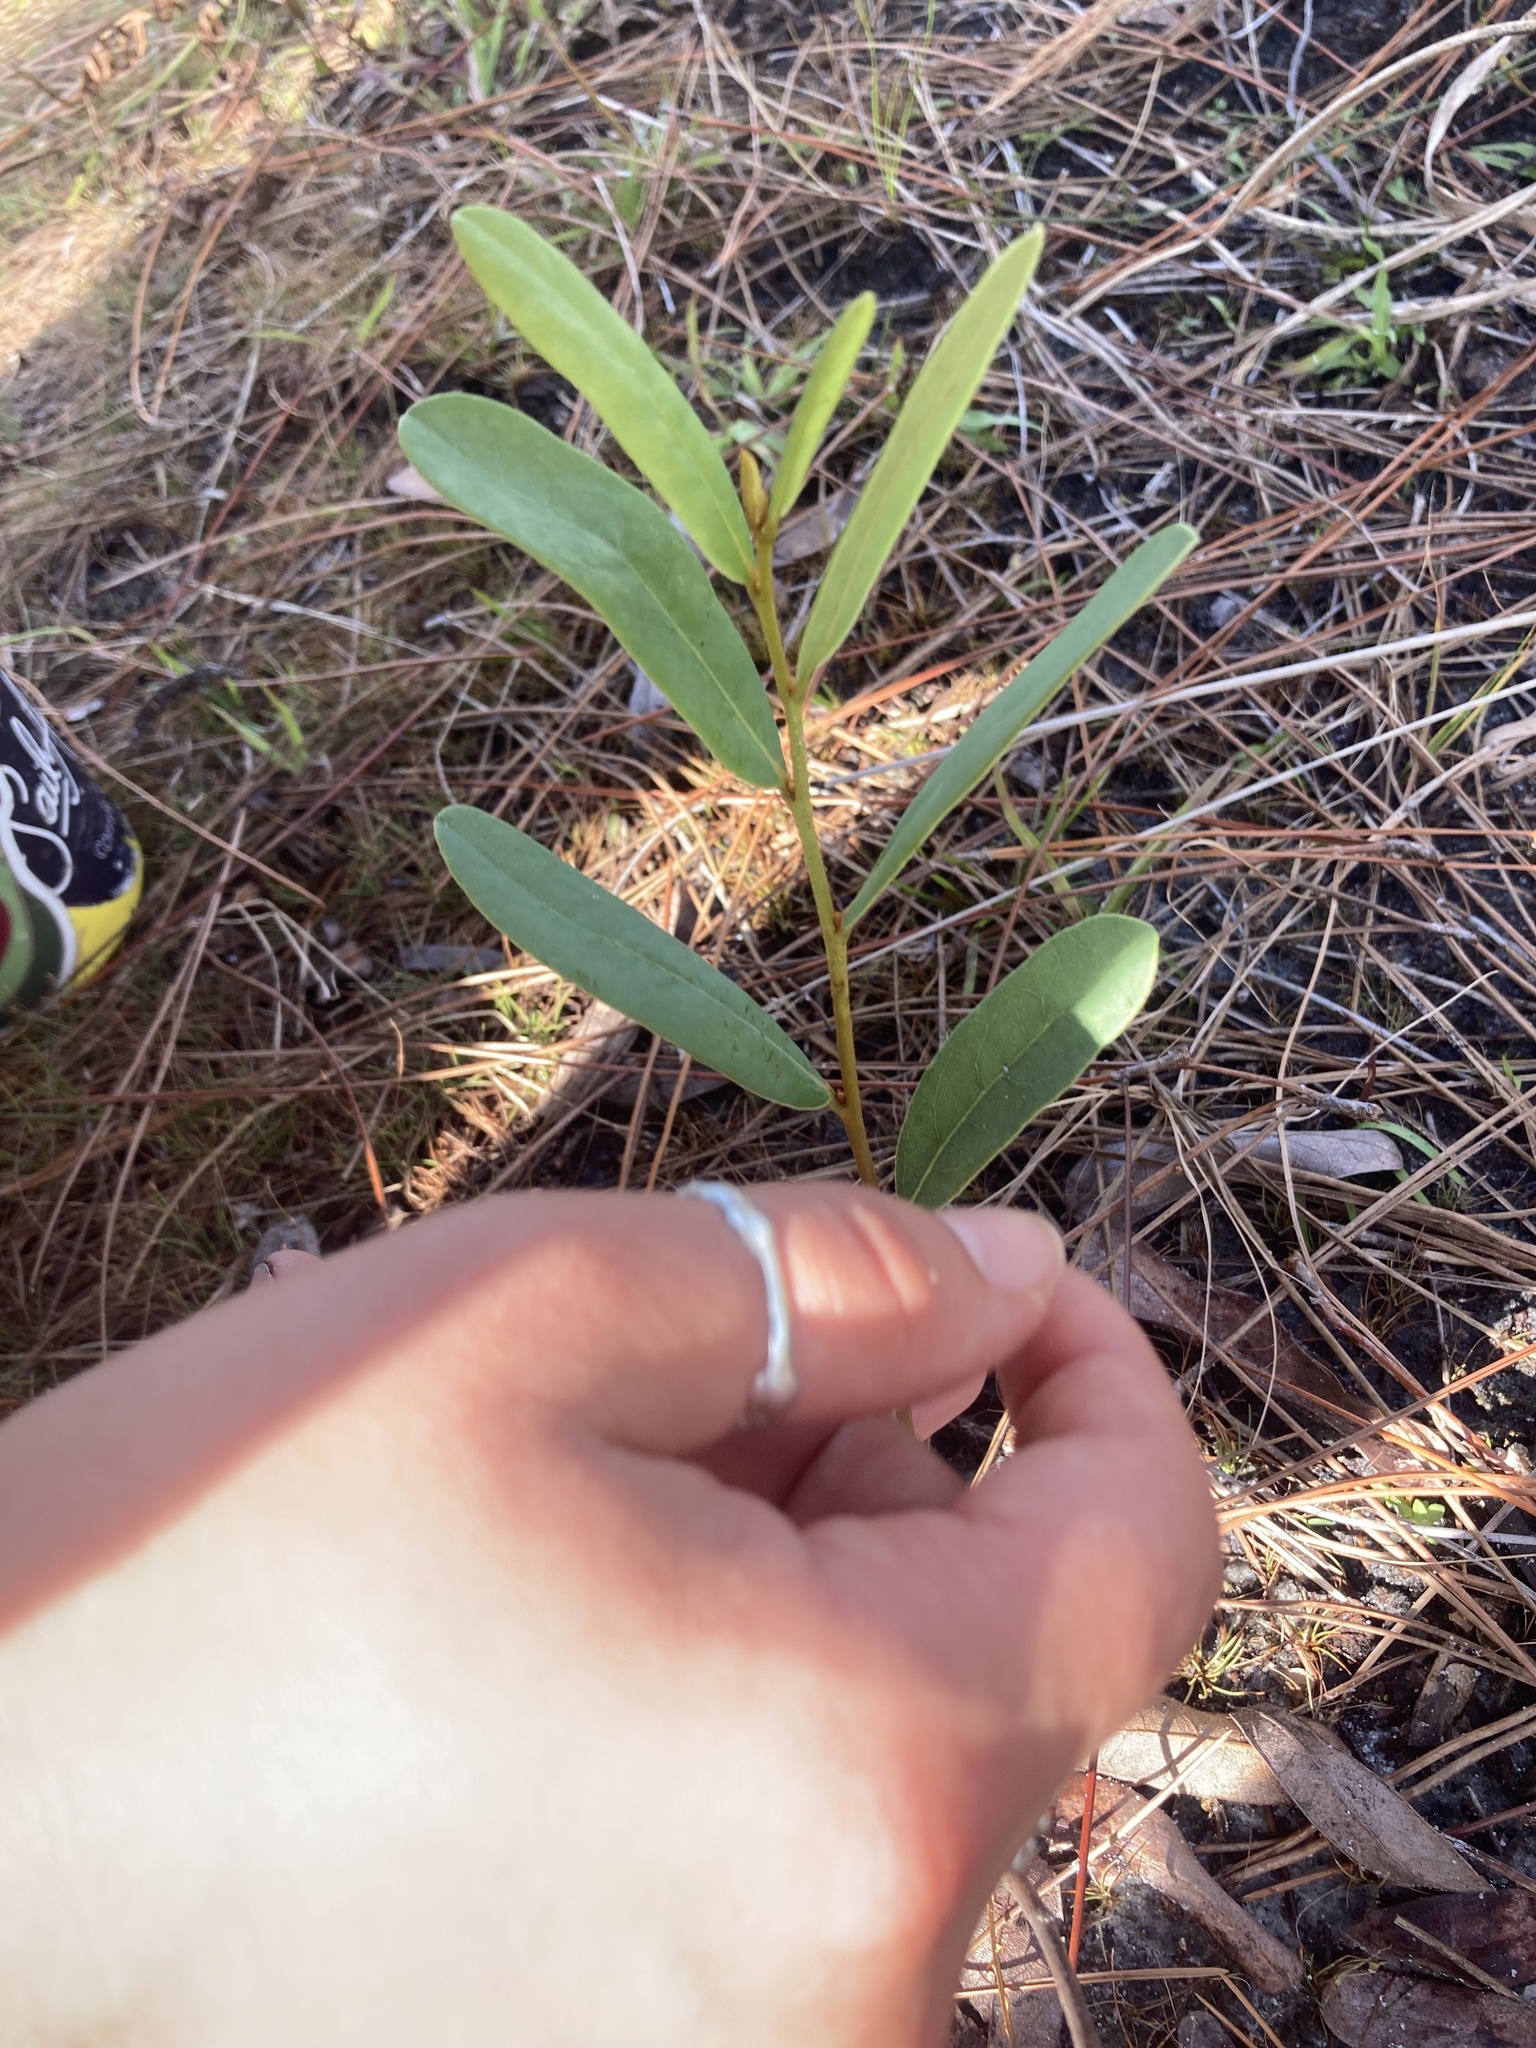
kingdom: Plantae
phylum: Tracheophyta
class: Magnoliopsida
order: Magnoliales
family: Annonaceae
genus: Asimina
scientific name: Asimina reticulata
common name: Flag pawpaw
